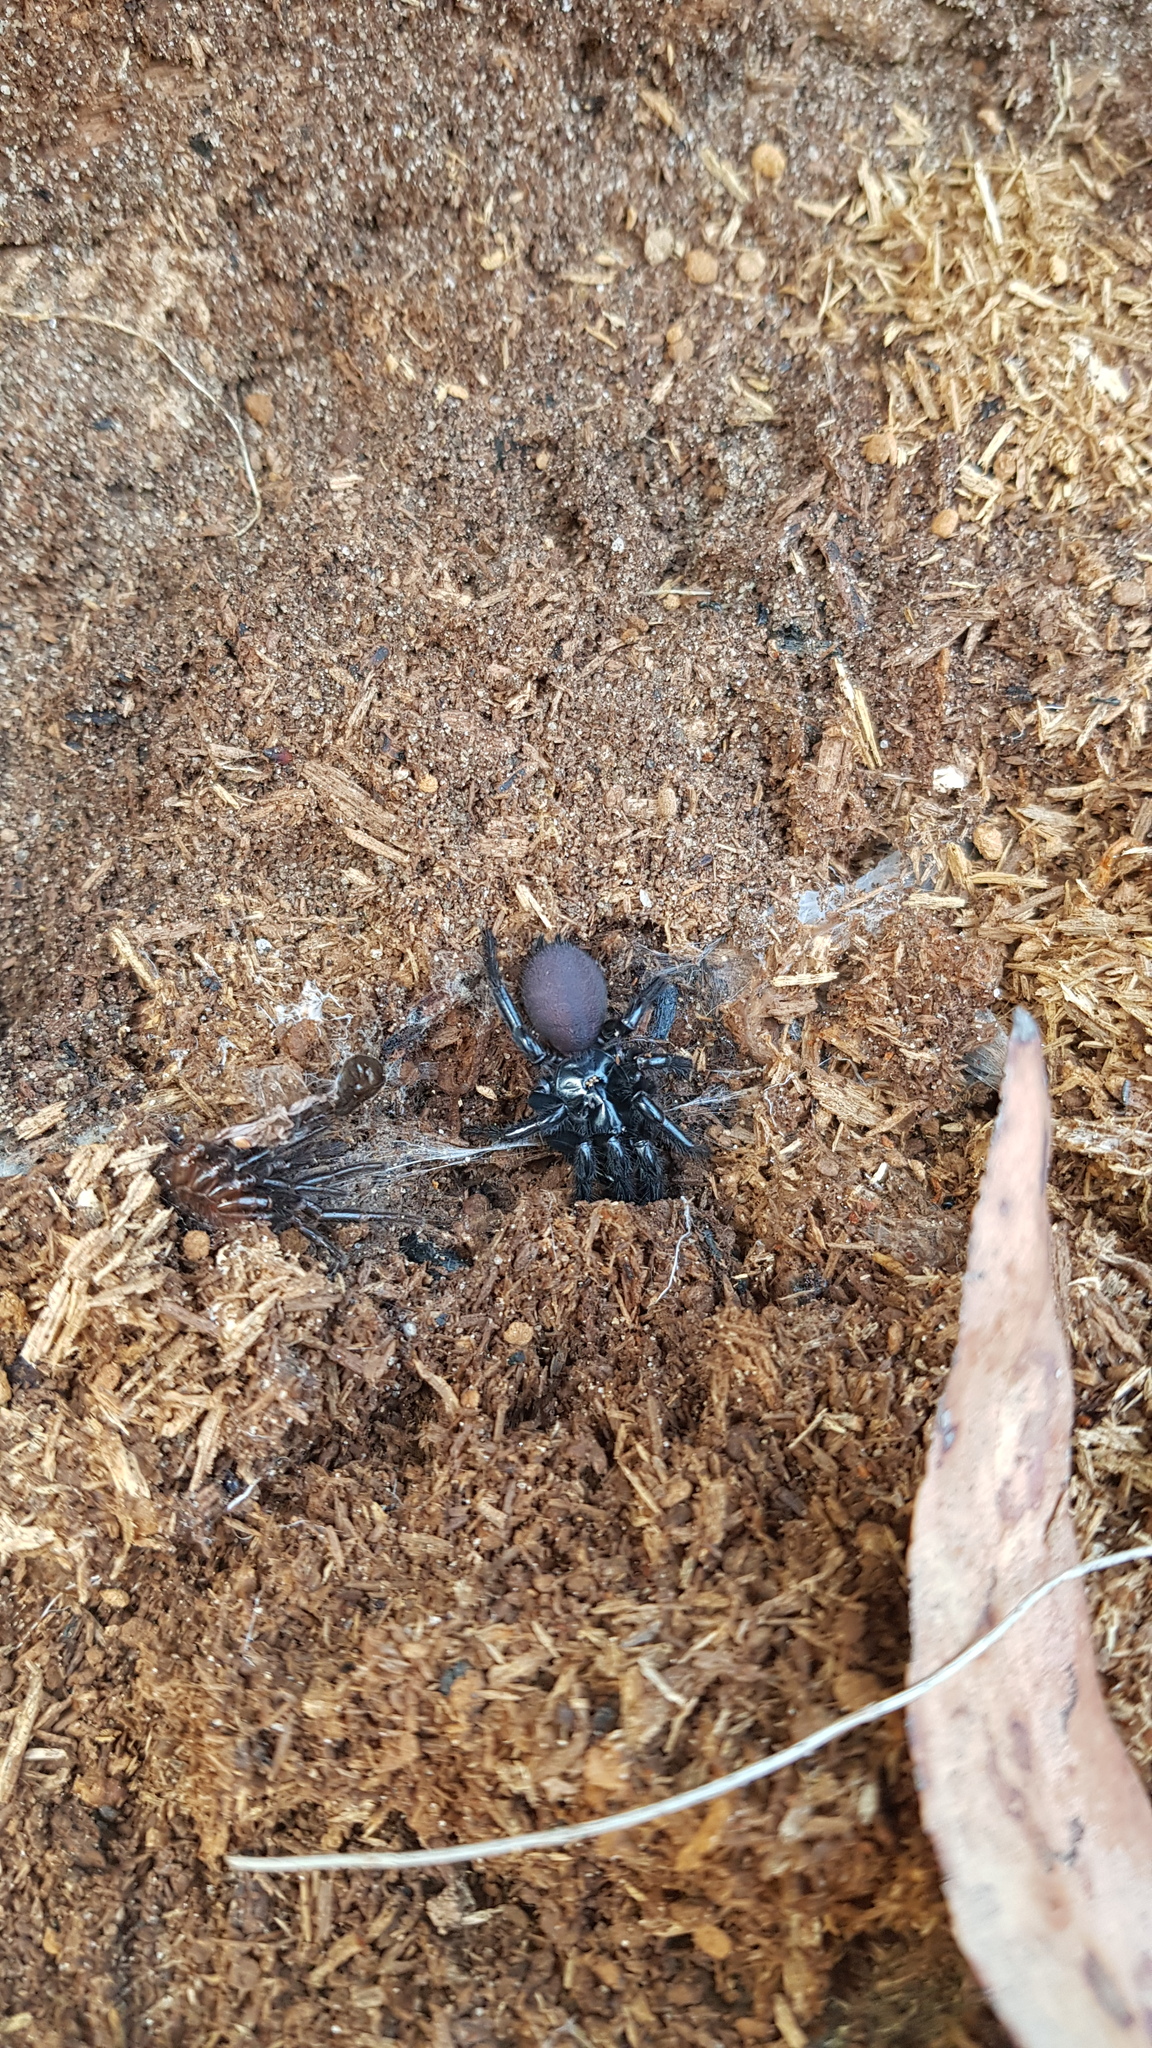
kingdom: Animalia
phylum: Arthropoda
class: Arachnida
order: Araneae
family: Atracidae
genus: Atrax
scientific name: Atrax robustus
